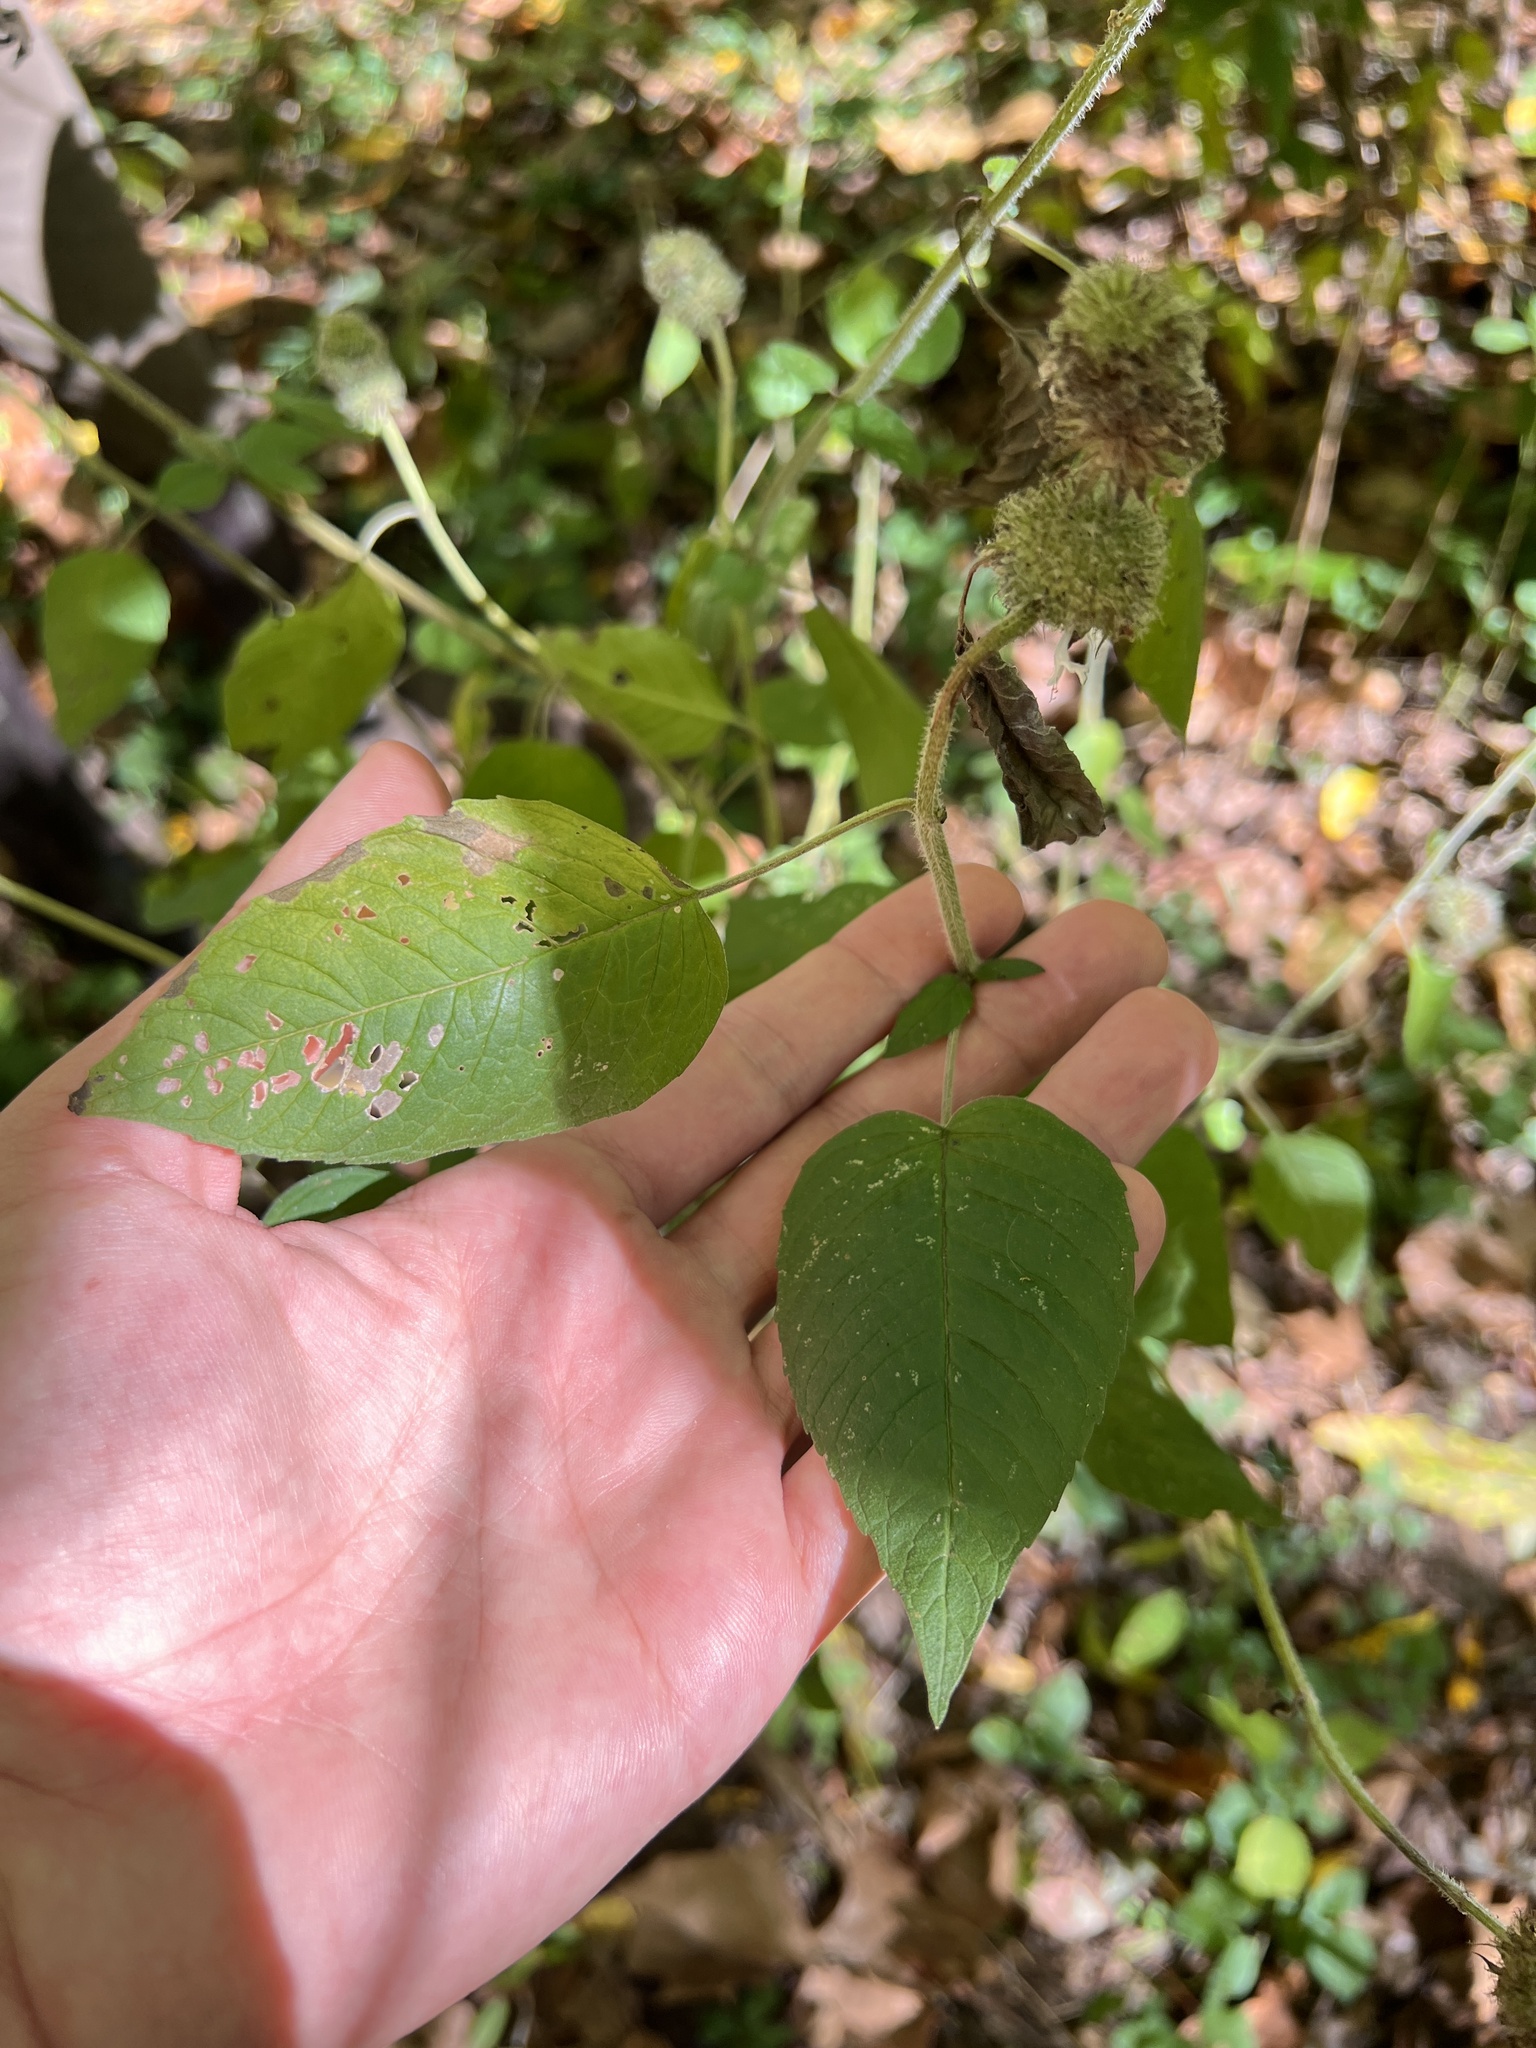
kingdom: Plantae
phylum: Tracheophyta
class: Magnoliopsida
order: Lamiales
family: Lamiaceae
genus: Blephilia
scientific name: Blephilia hirsuta
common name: Hairy blephilia
